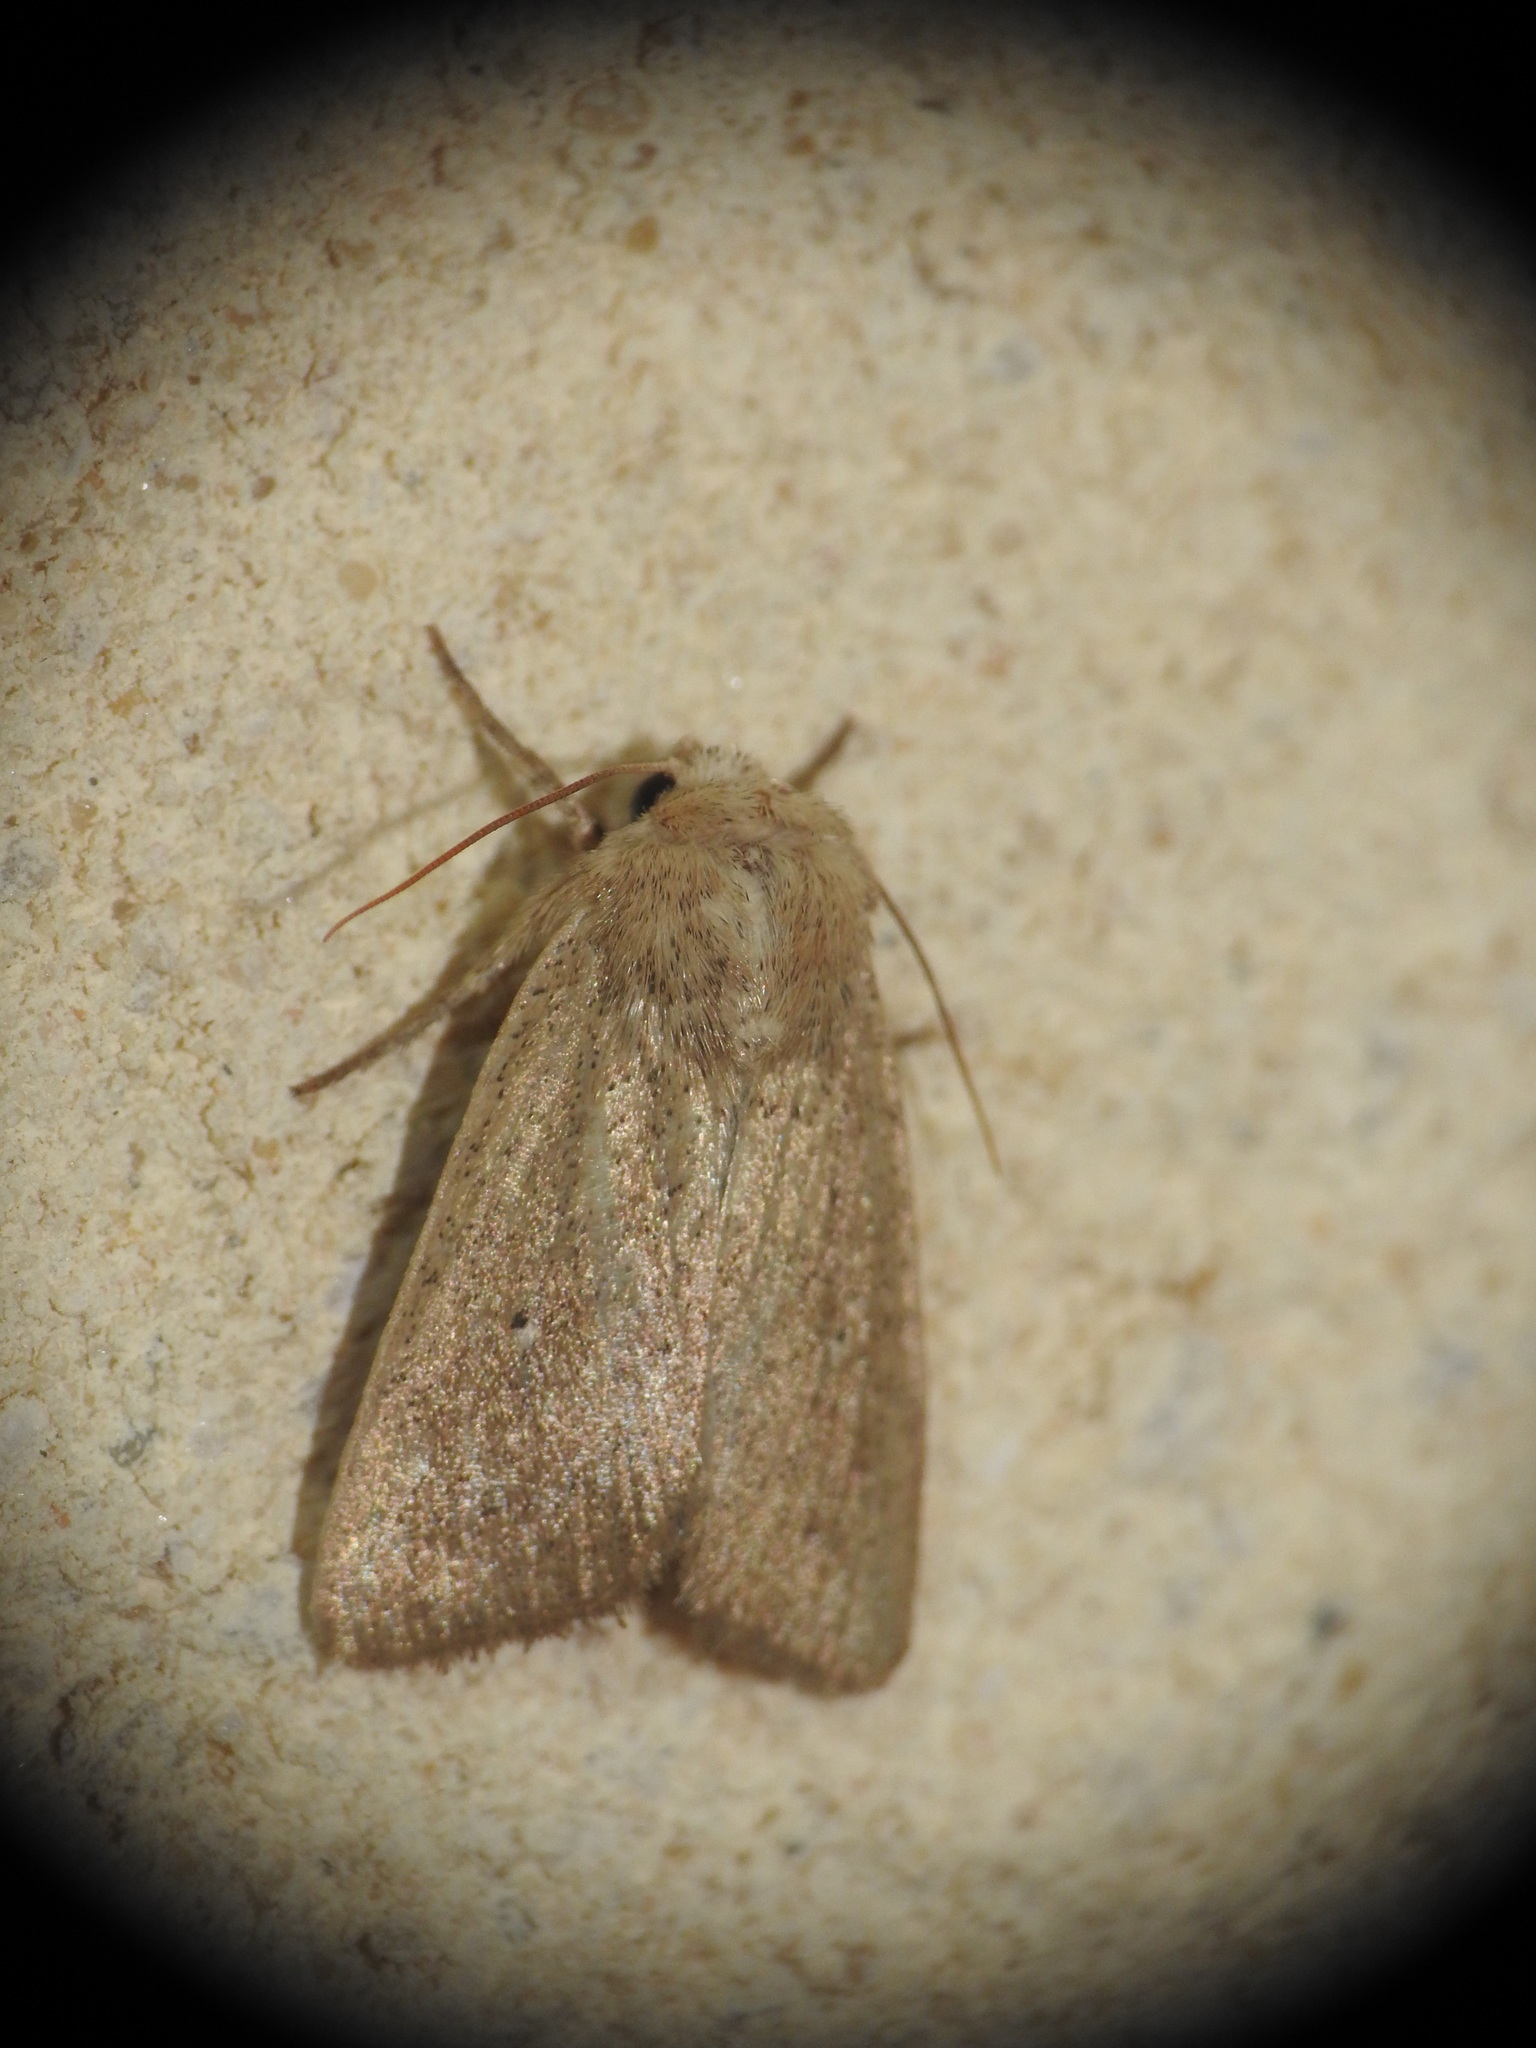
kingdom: Animalia
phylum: Arthropoda
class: Insecta
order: Lepidoptera
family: Noctuidae
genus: Mythimna
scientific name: Mythimna sicula
